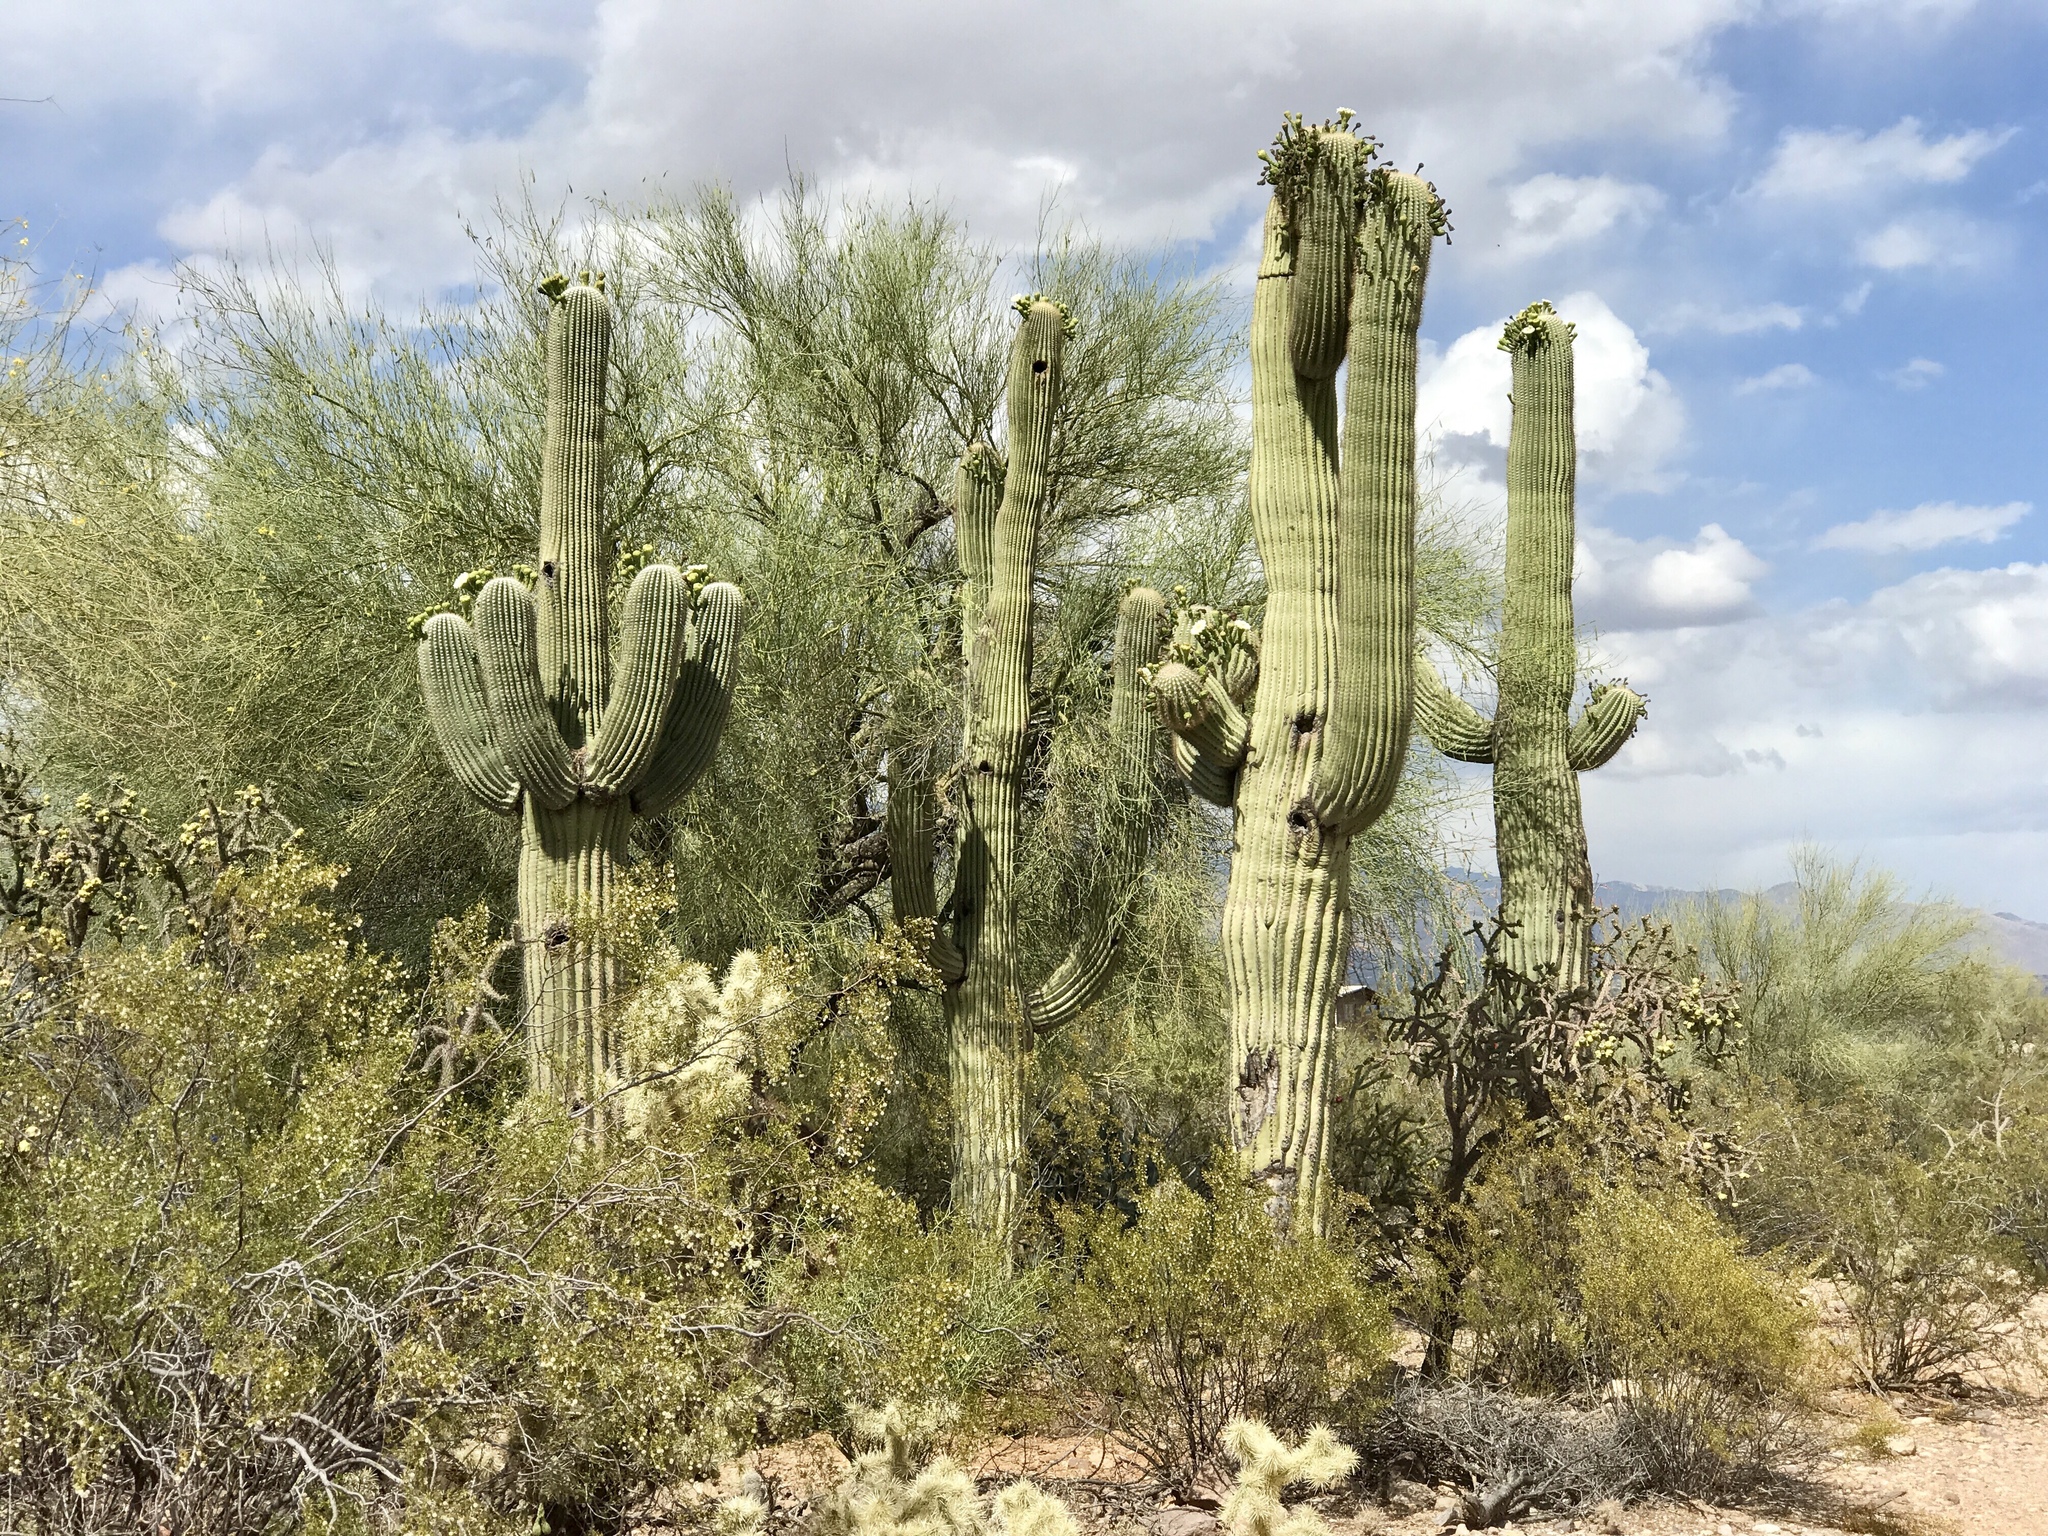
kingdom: Plantae
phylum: Tracheophyta
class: Magnoliopsida
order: Caryophyllales
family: Cactaceae
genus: Carnegiea
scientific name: Carnegiea gigantea
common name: Saguaro
